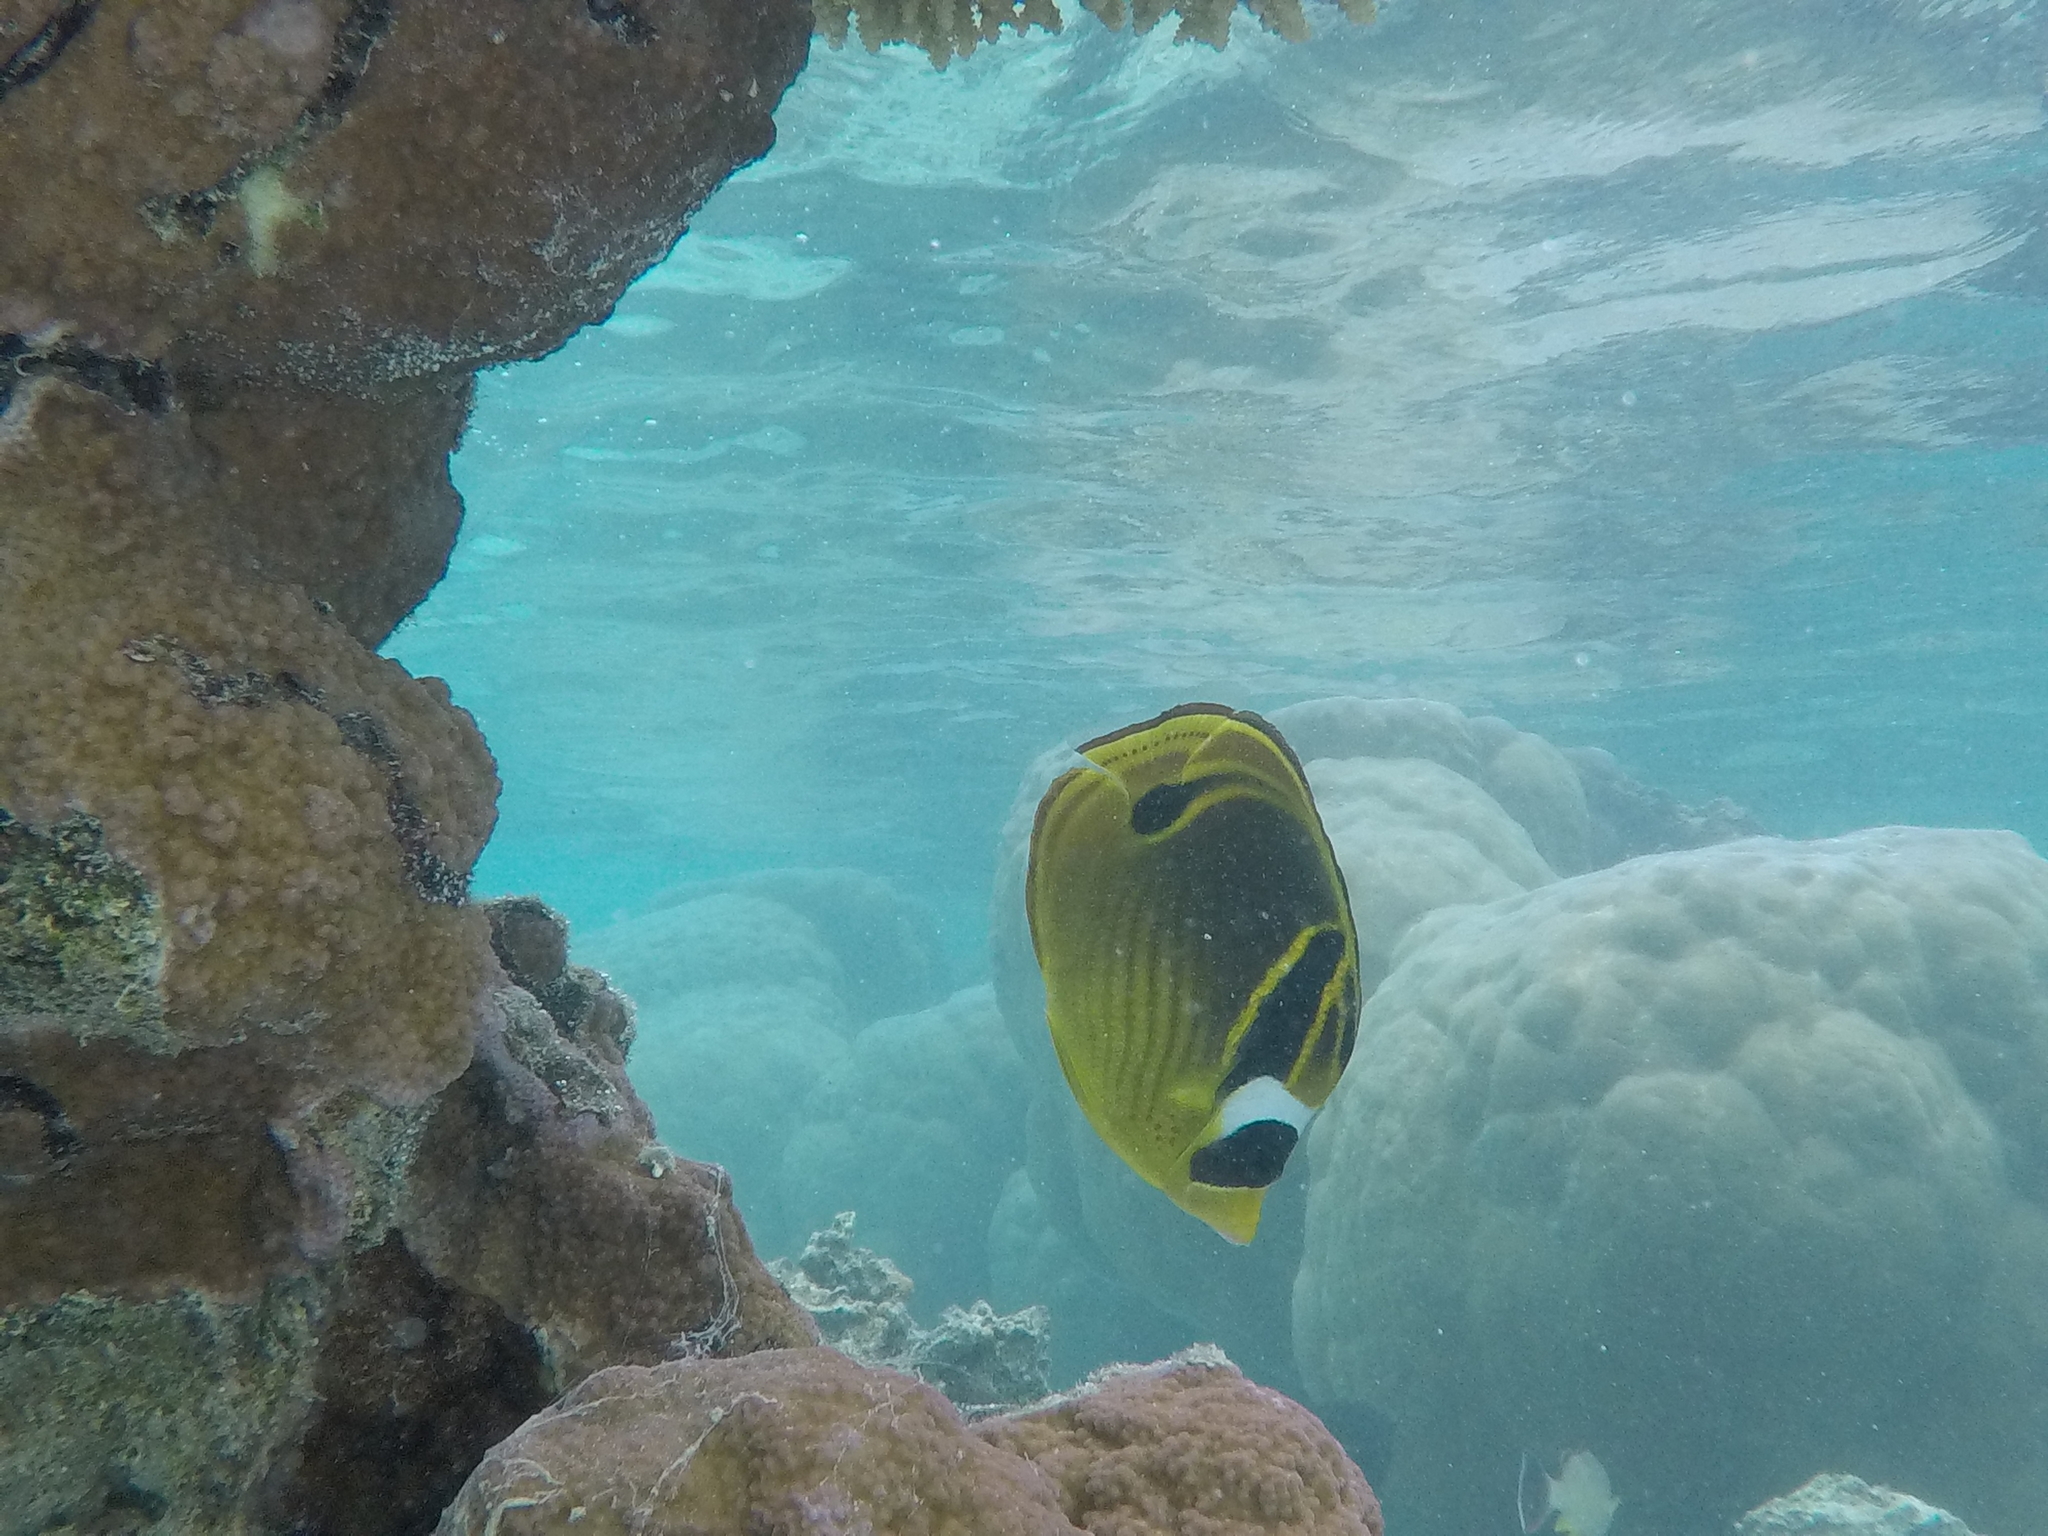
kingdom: Animalia
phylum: Chordata
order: Perciformes
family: Chaetodontidae
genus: Chaetodon
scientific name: Chaetodon lunula
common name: Raccoon butterflyfish
